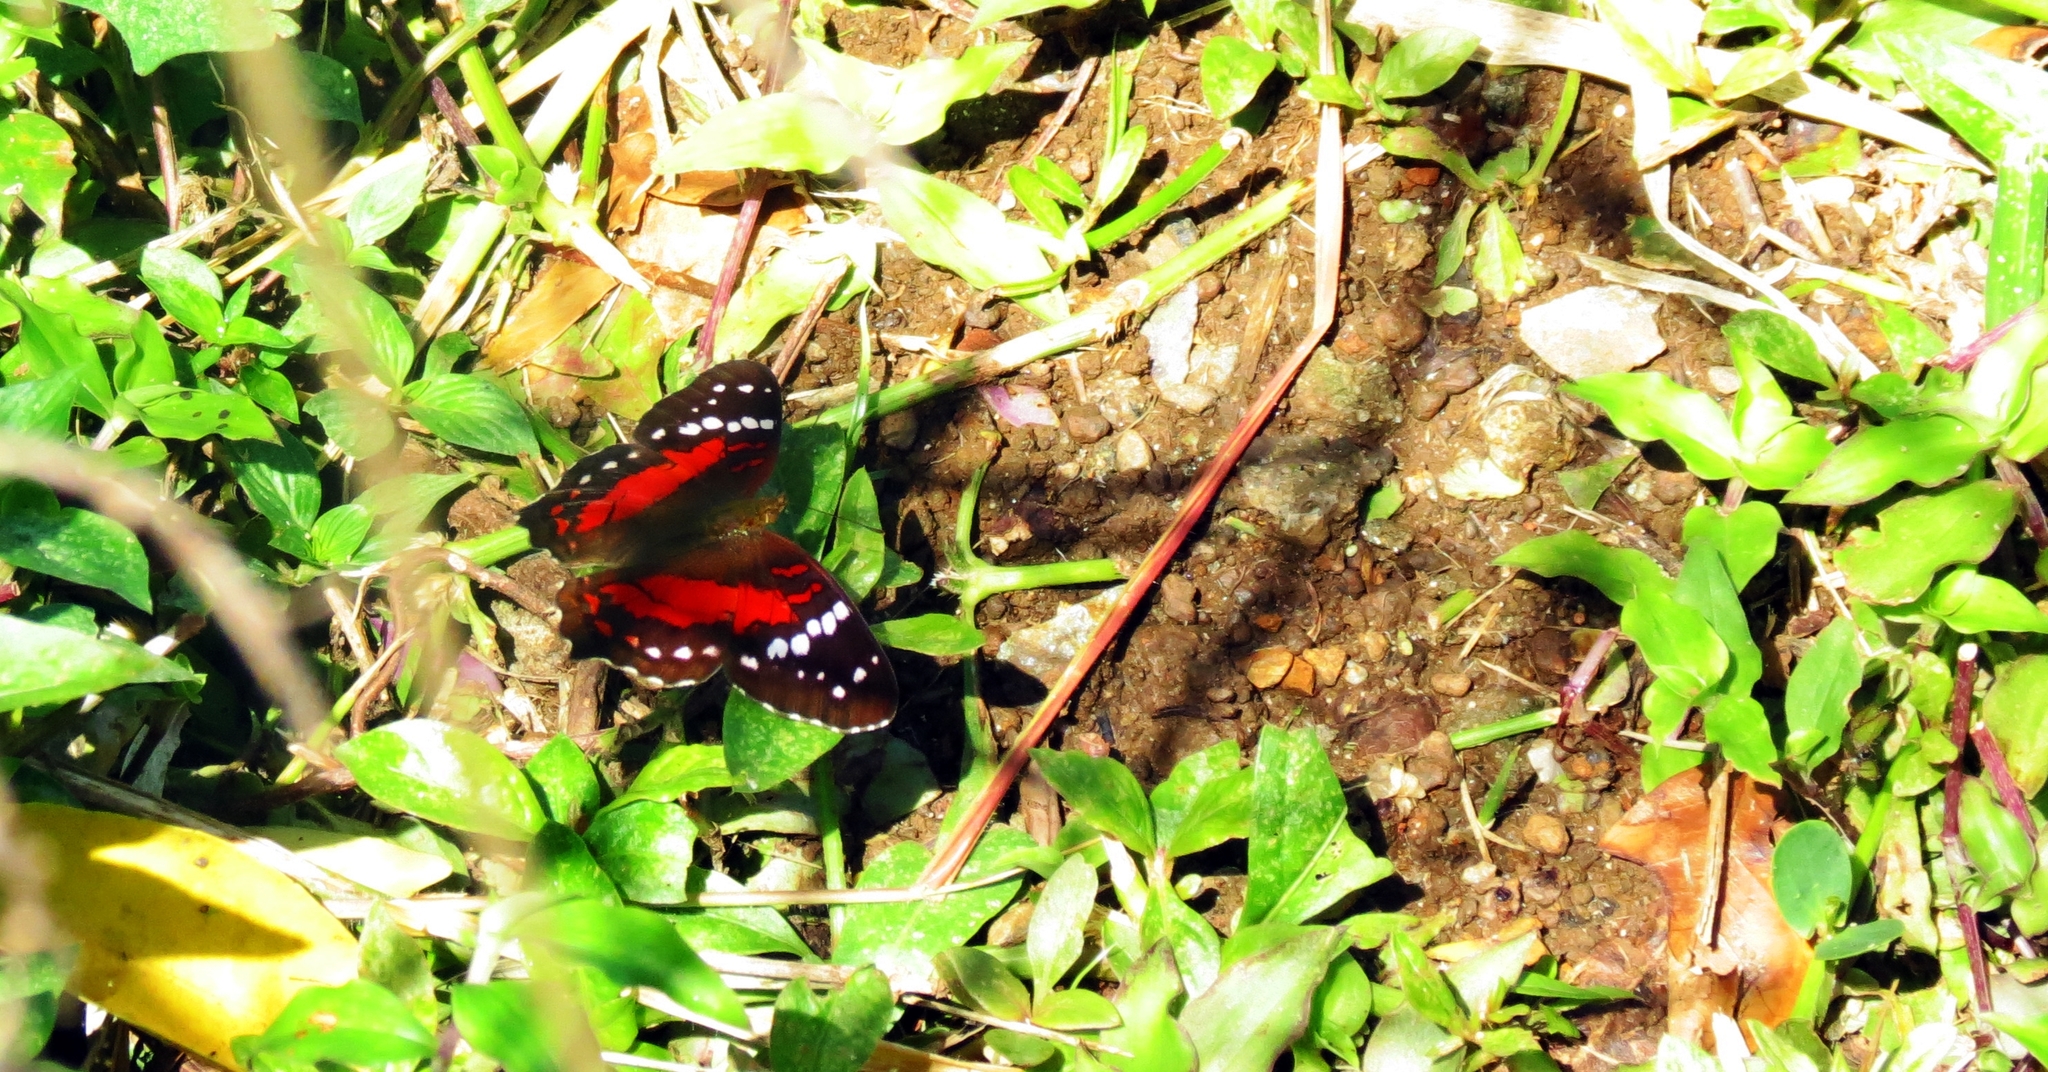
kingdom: Animalia
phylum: Arthropoda
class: Insecta
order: Lepidoptera
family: Nymphalidae
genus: Anartia
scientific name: Anartia amathea
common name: Red peacock
